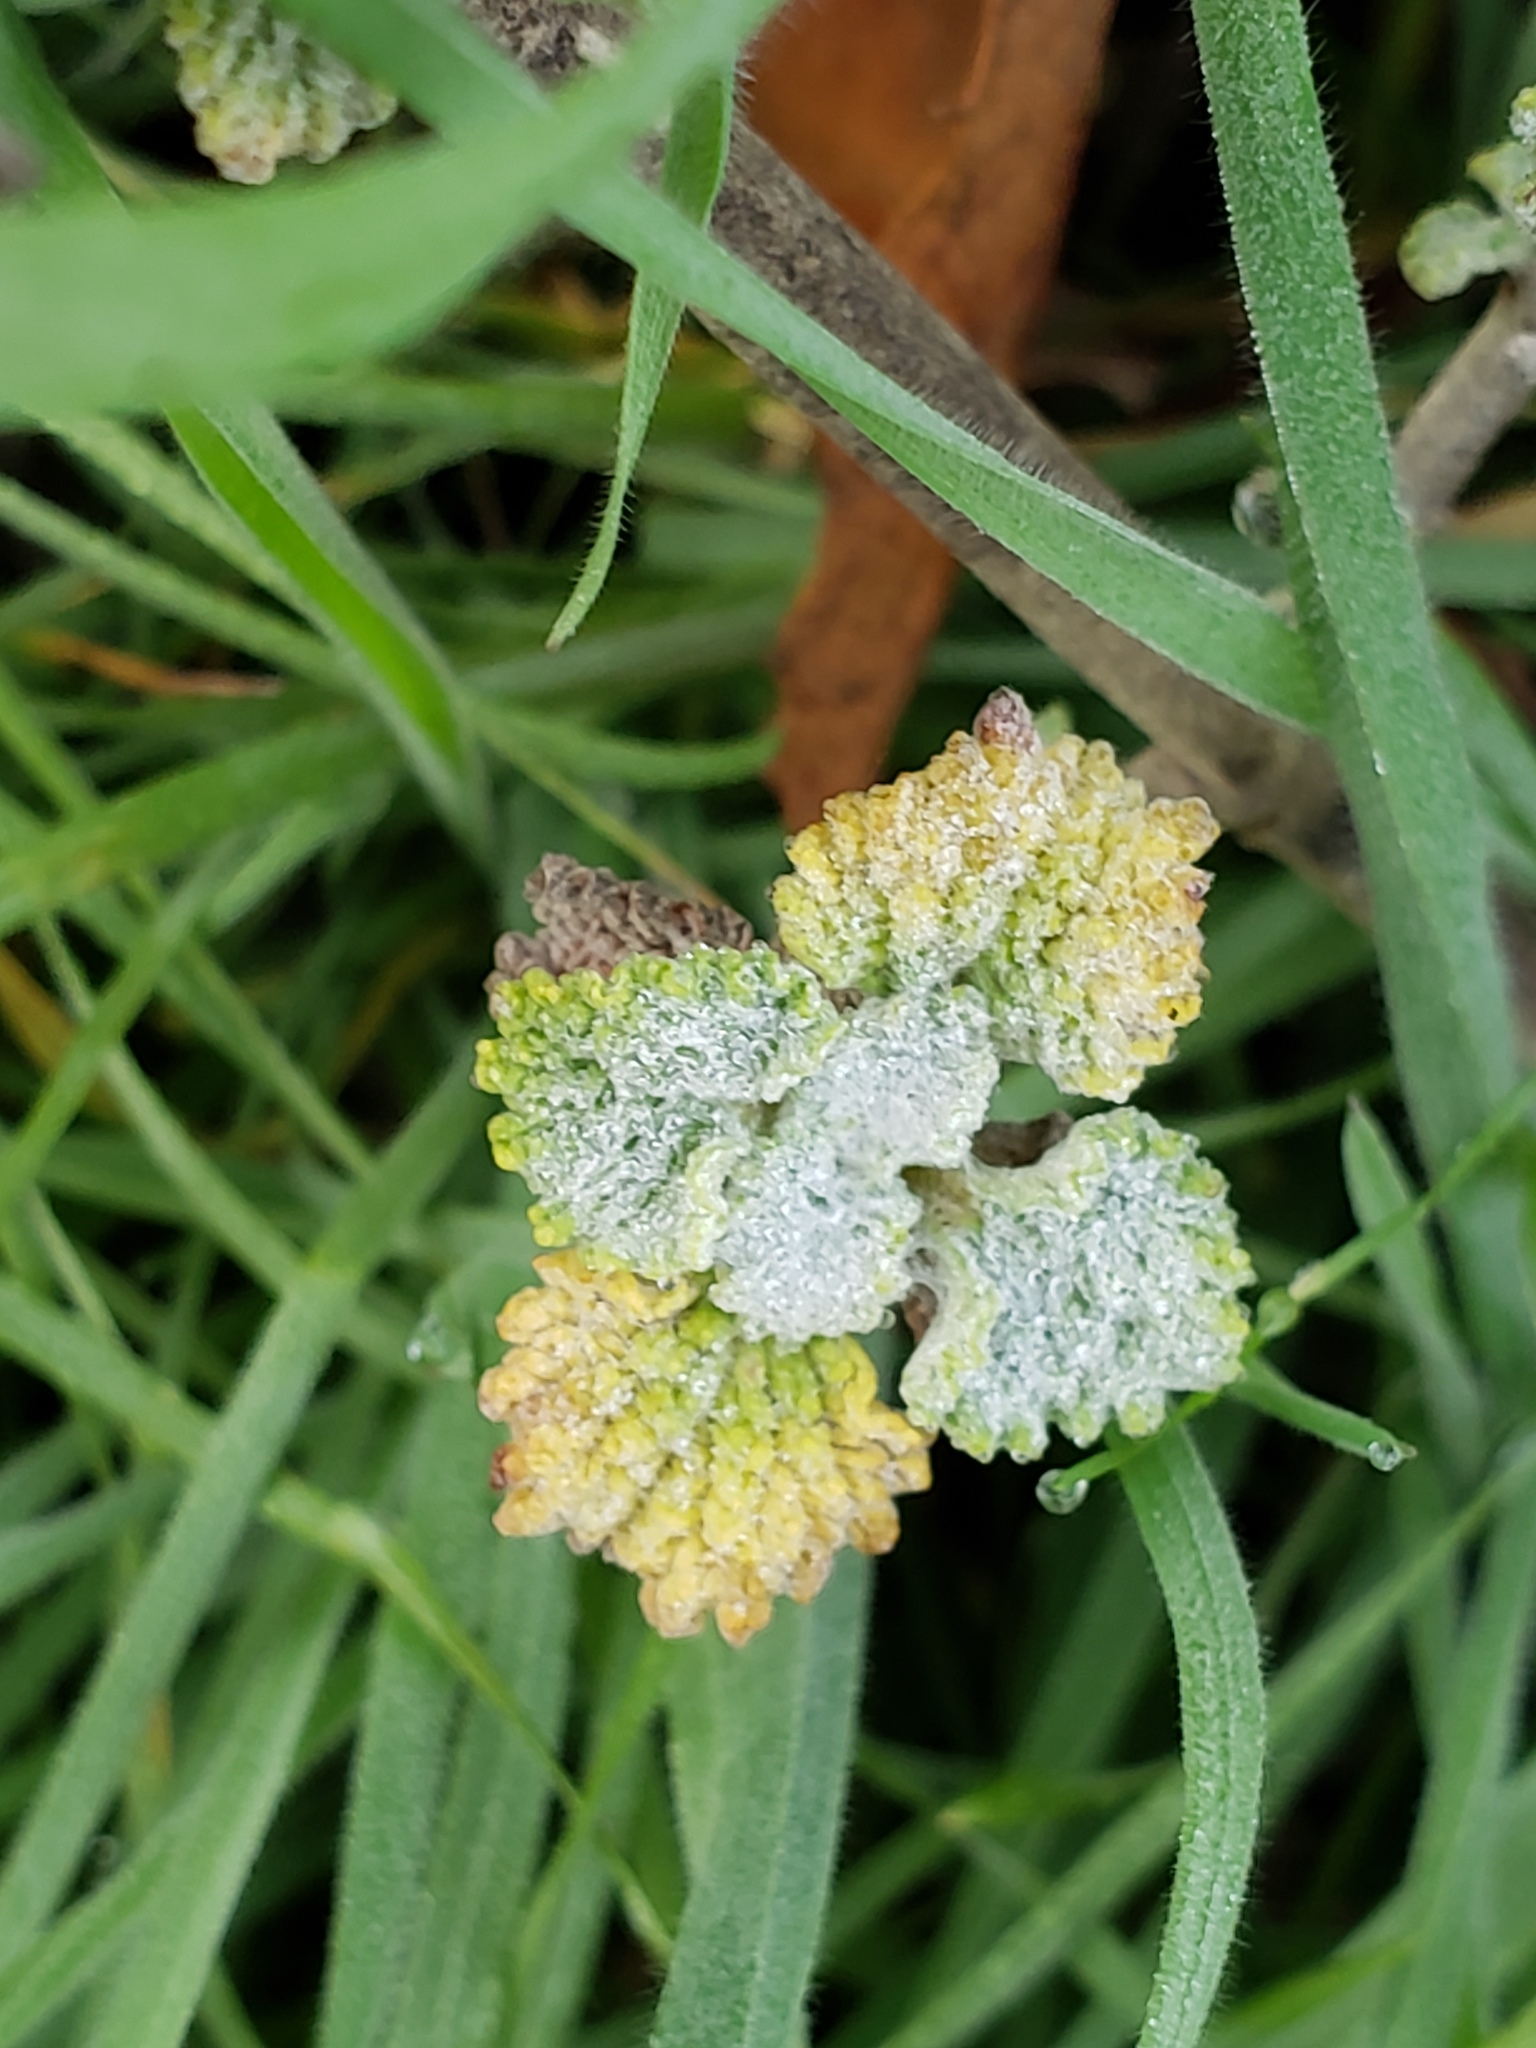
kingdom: Plantae
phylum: Tracheophyta
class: Magnoliopsida
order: Lamiales
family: Lamiaceae
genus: Marrubium
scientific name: Marrubium vulgare
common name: Horehound
